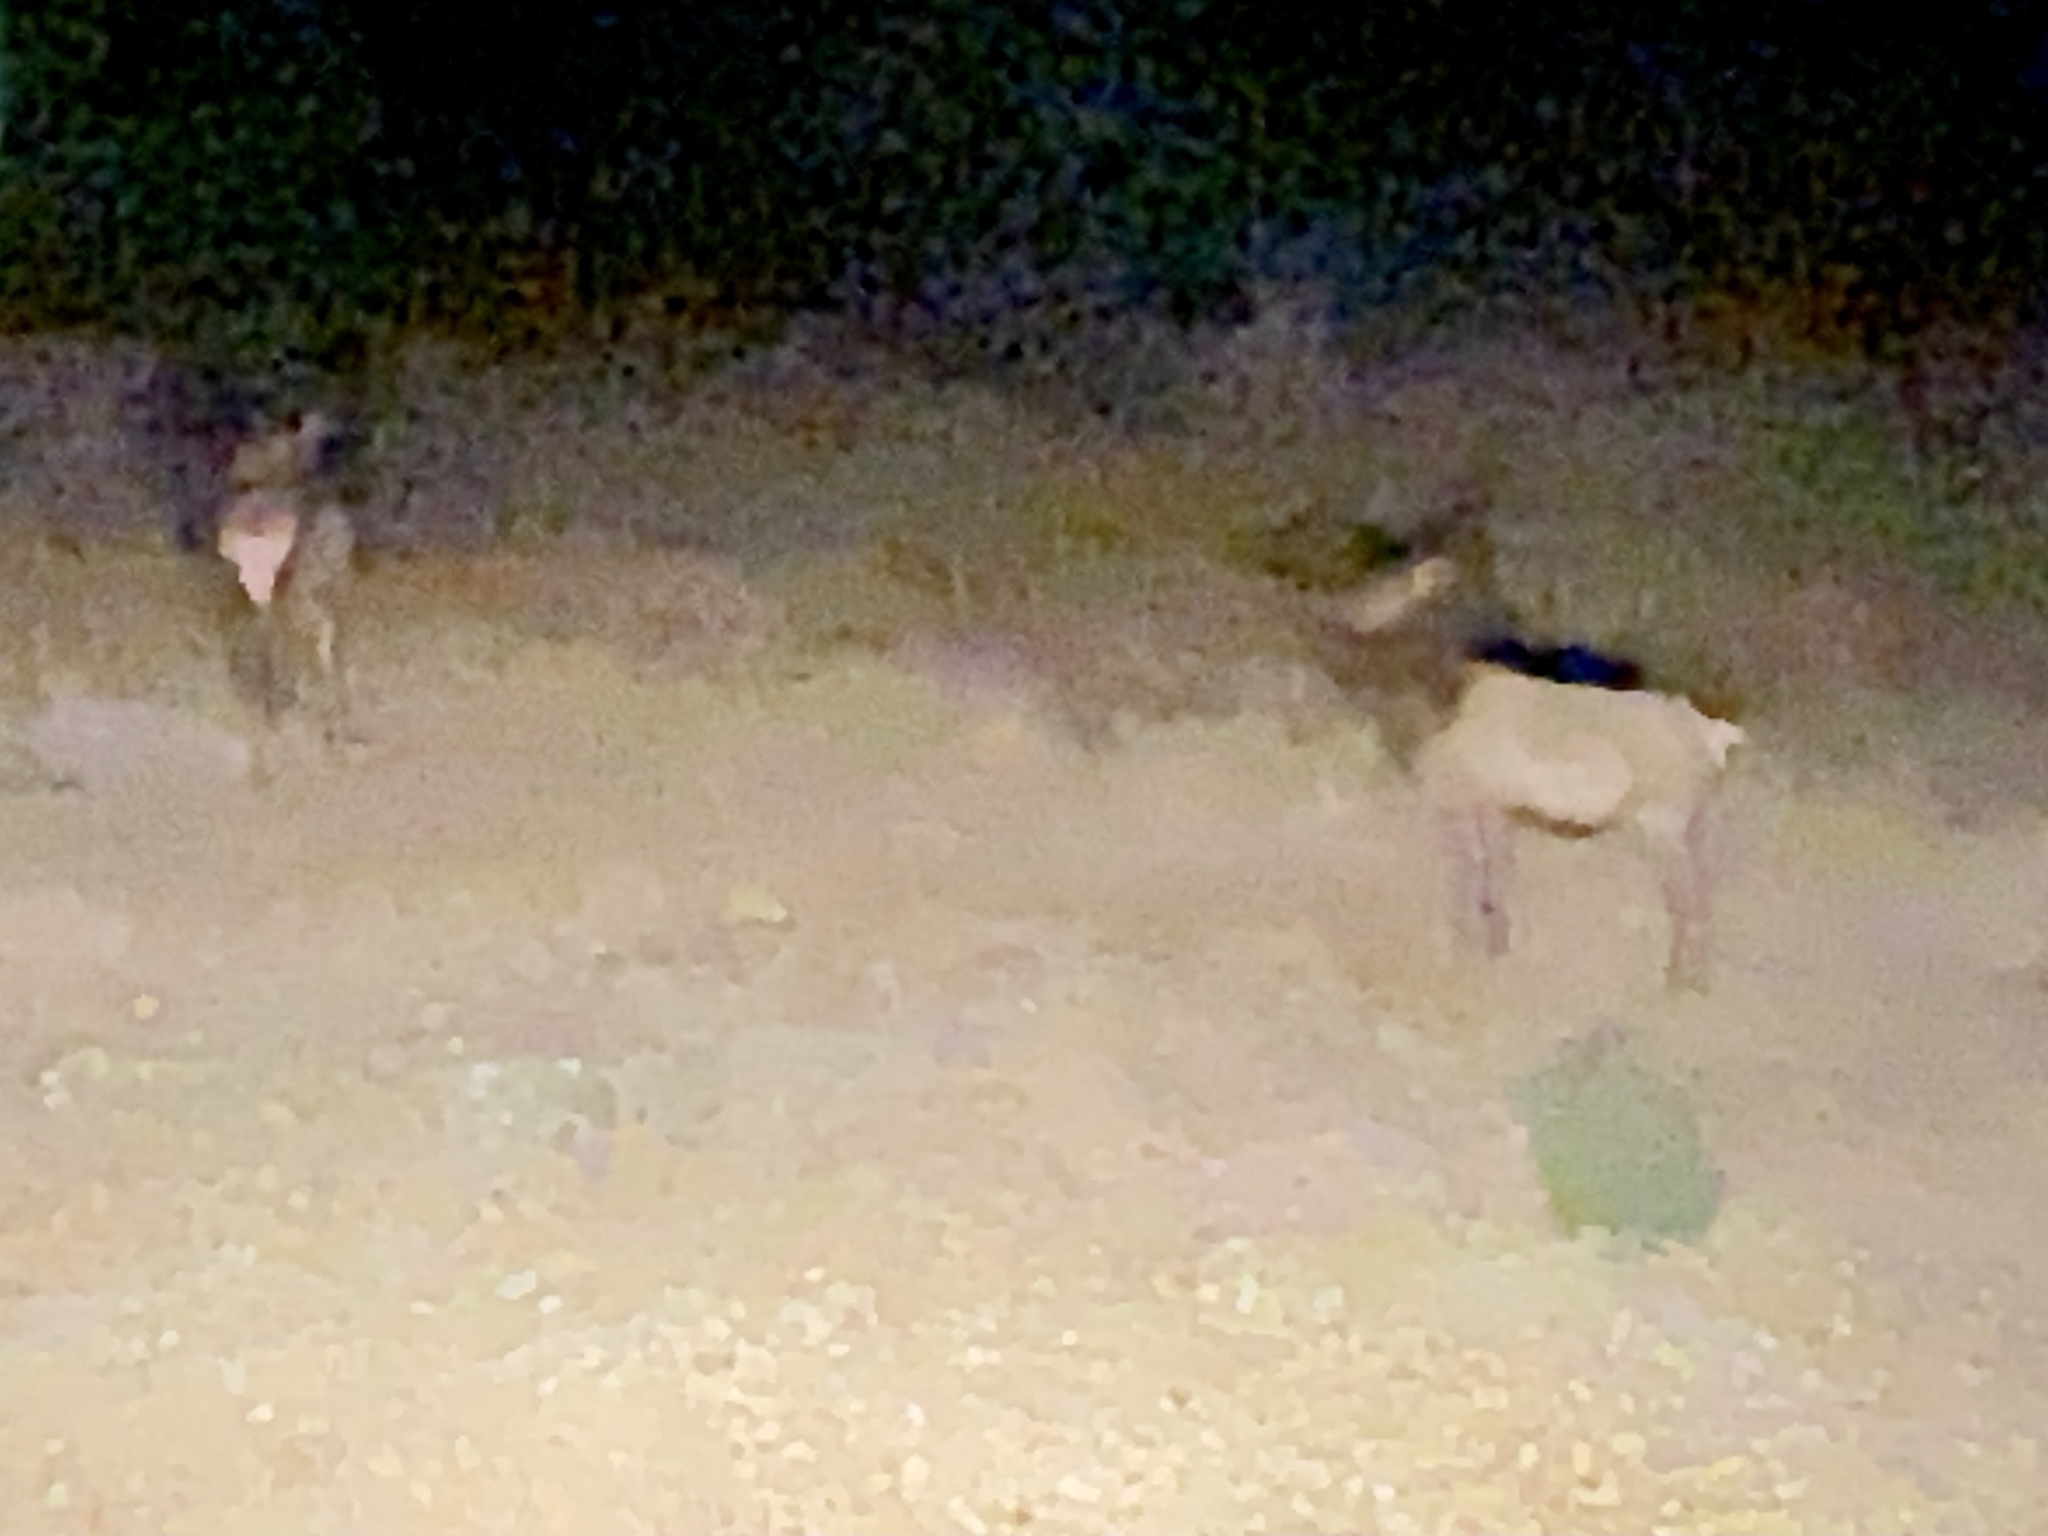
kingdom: Animalia
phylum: Chordata
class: Mammalia
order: Artiodactyla
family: Cervidae
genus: Cervus
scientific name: Cervus elaphus
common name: Red deer
